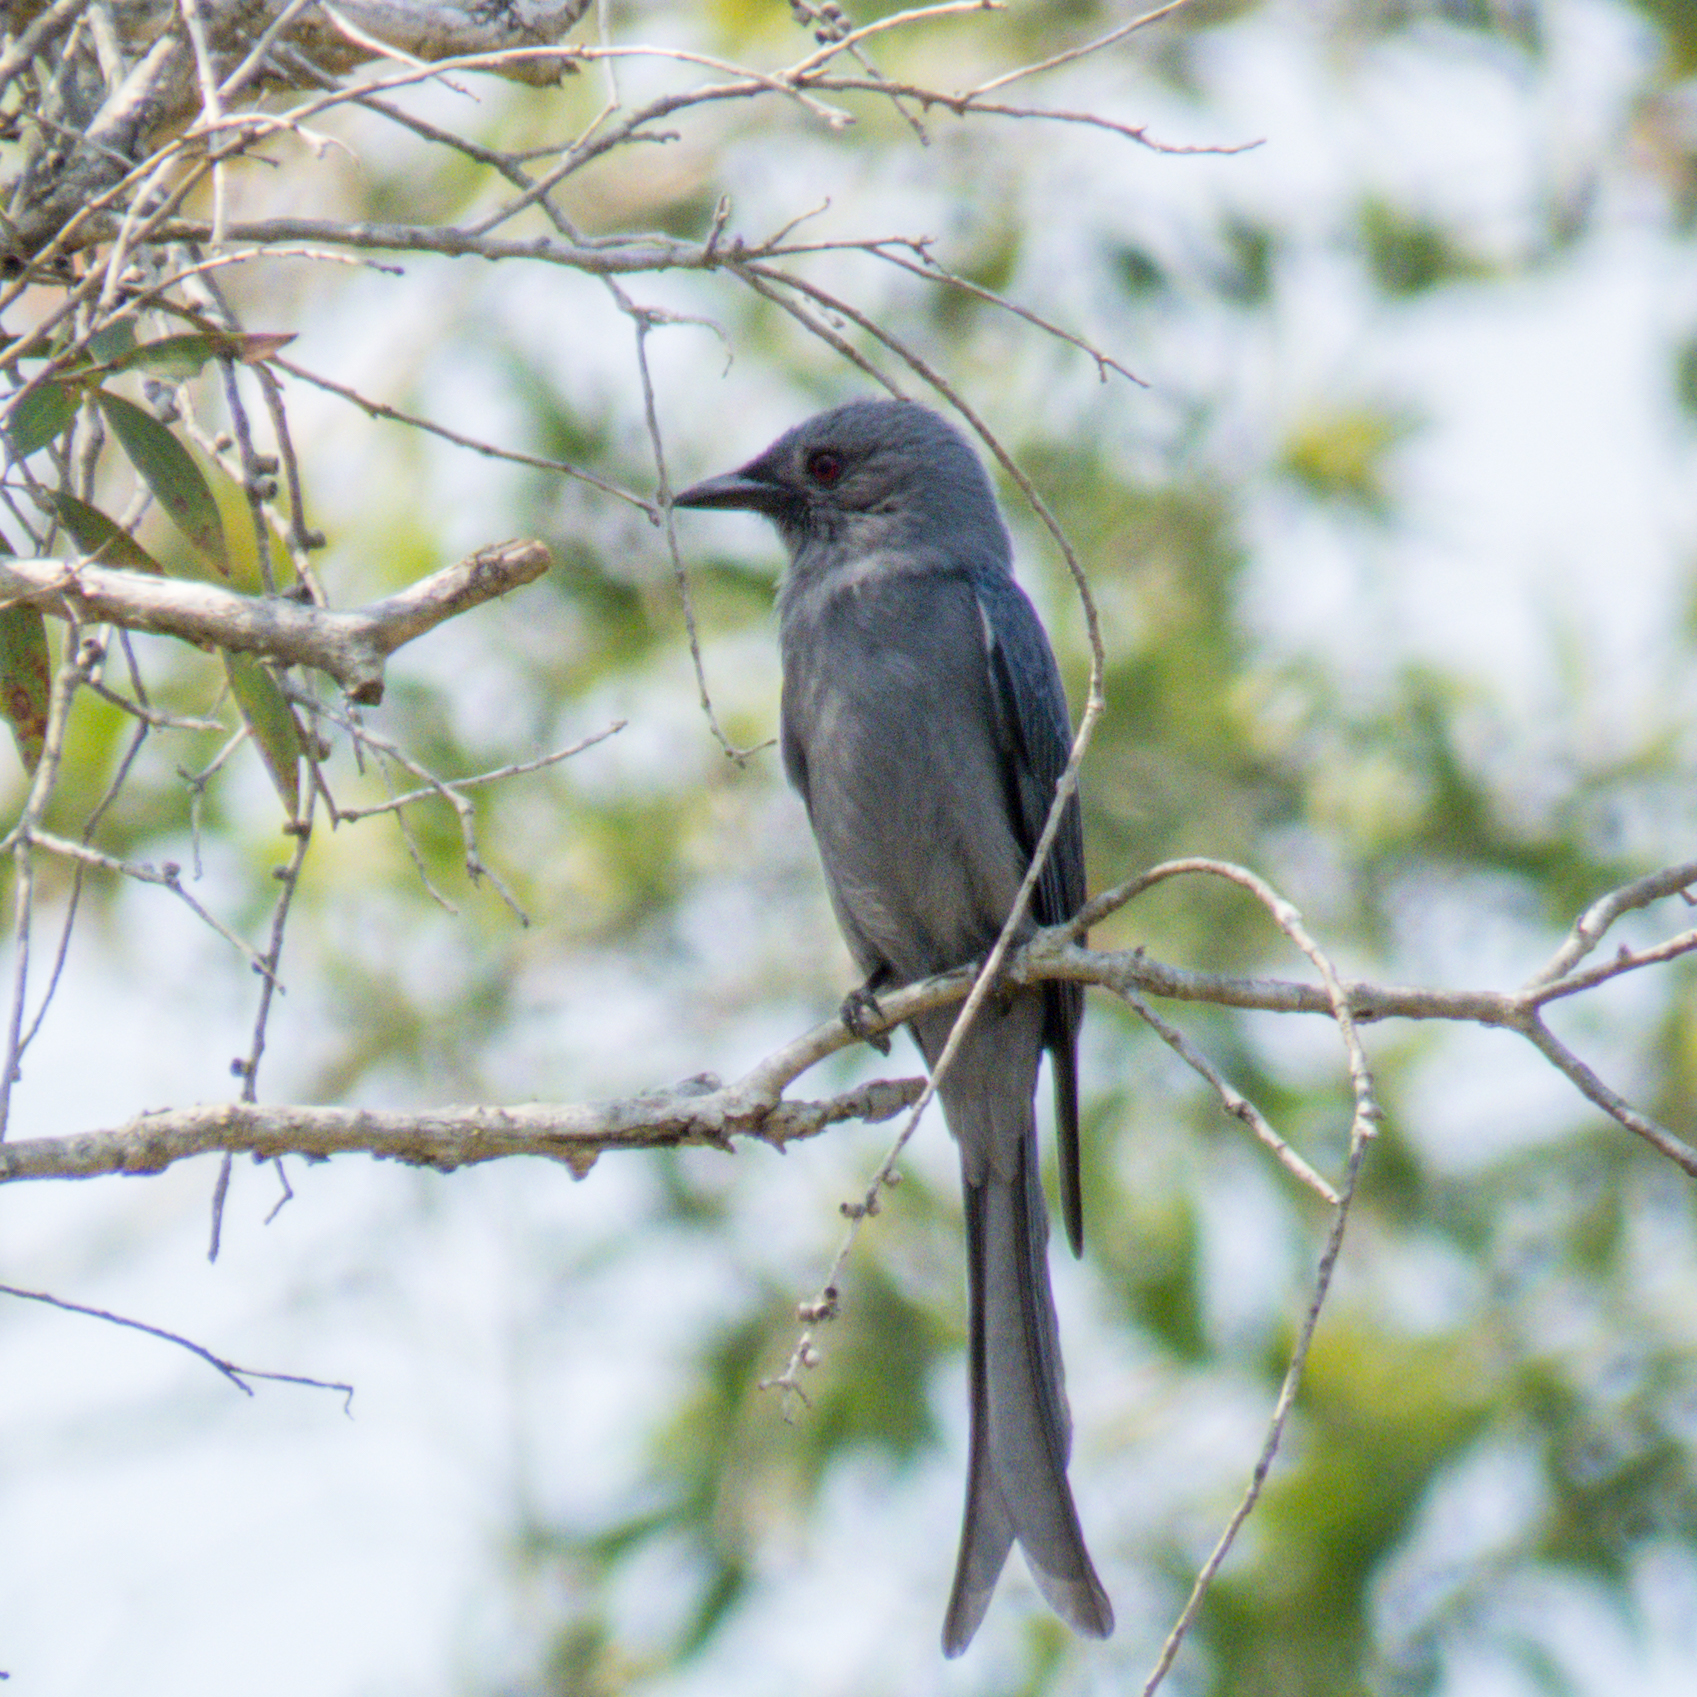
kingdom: Animalia
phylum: Chordata
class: Aves
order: Passeriformes
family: Dicruridae
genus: Dicrurus
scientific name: Dicrurus leucophaeus
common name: Ashy drongo
